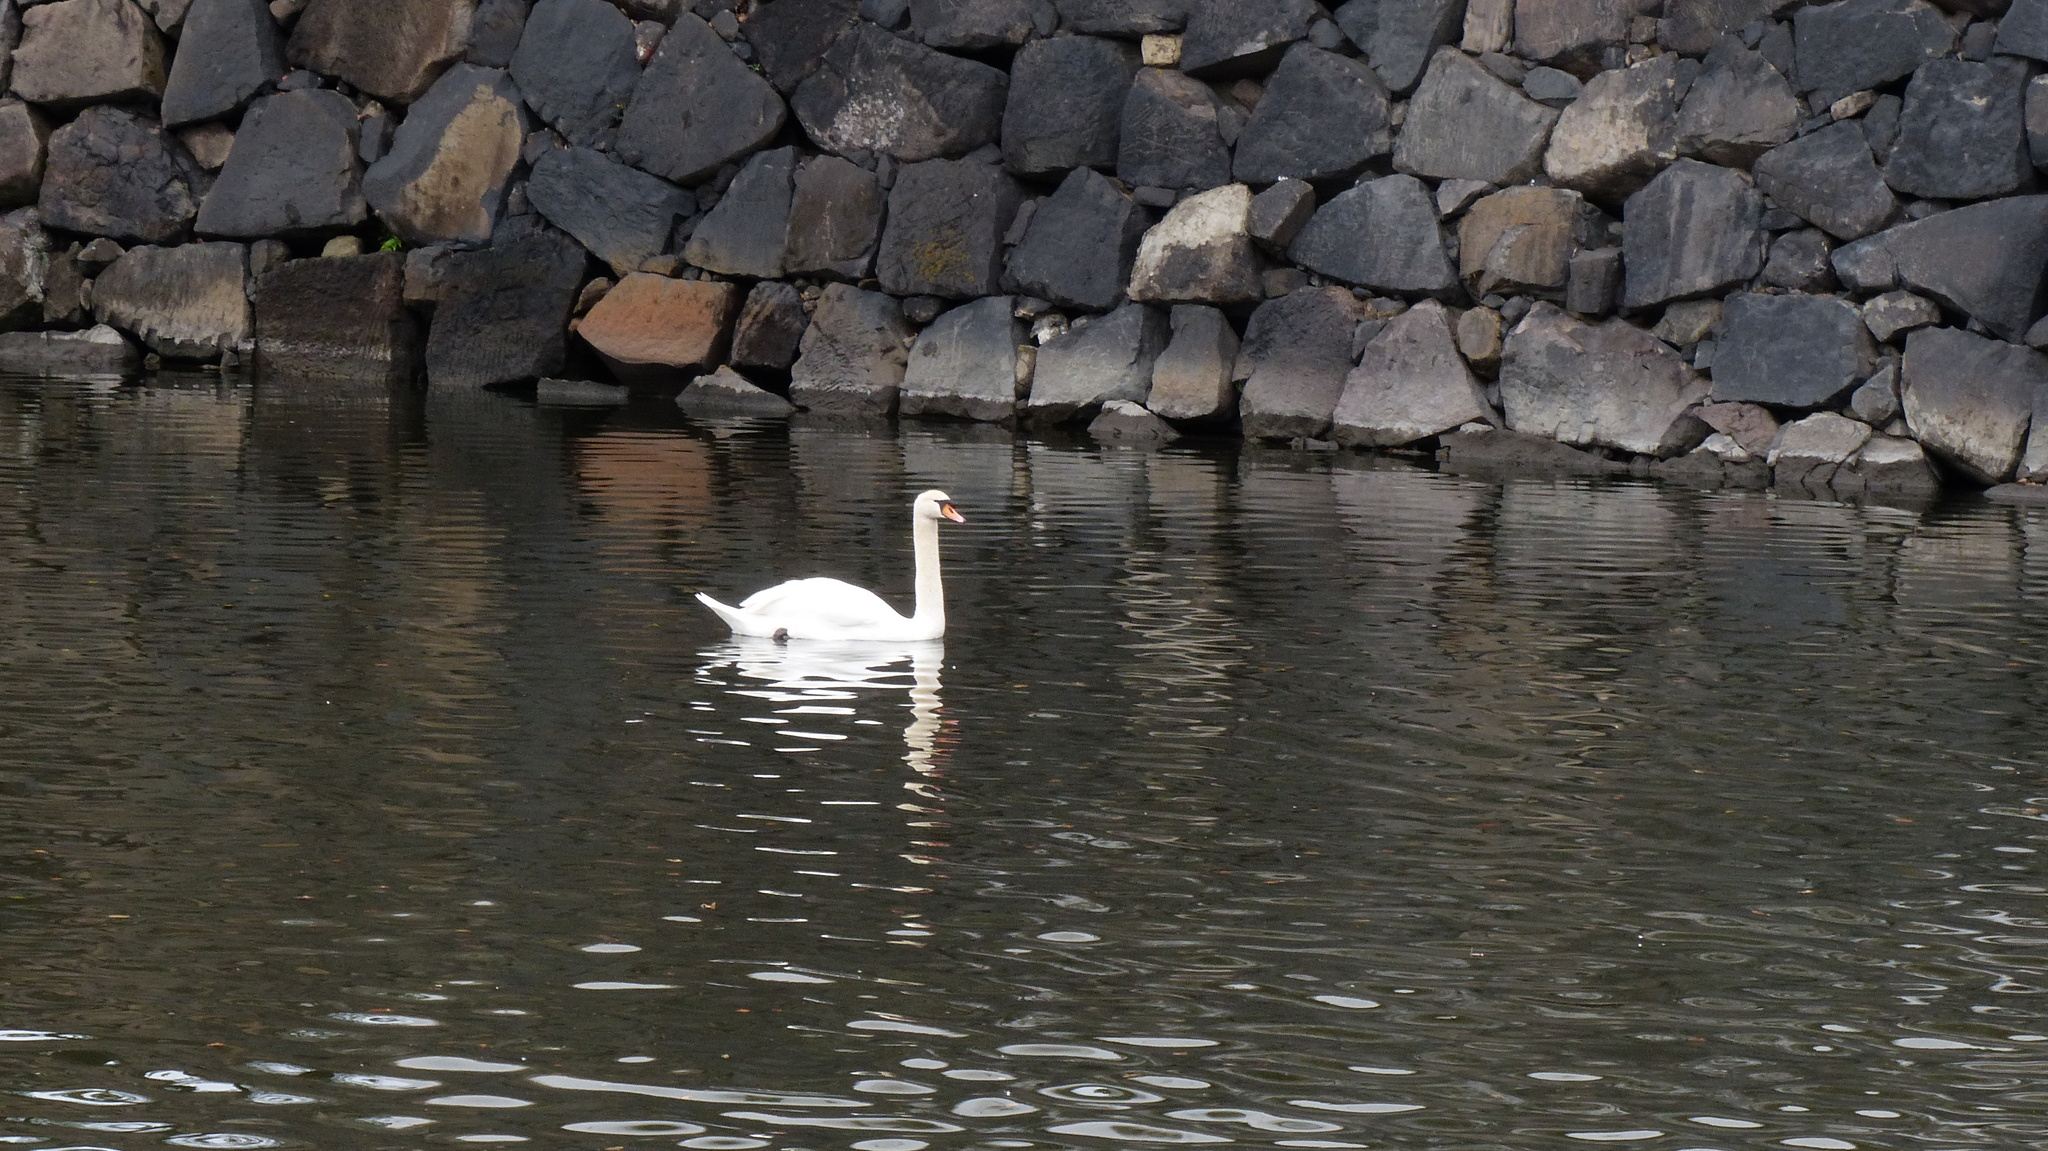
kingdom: Animalia
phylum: Chordata
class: Aves
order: Anseriformes
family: Anatidae
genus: Cygnus
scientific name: Cygnus olor
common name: Mute swan
